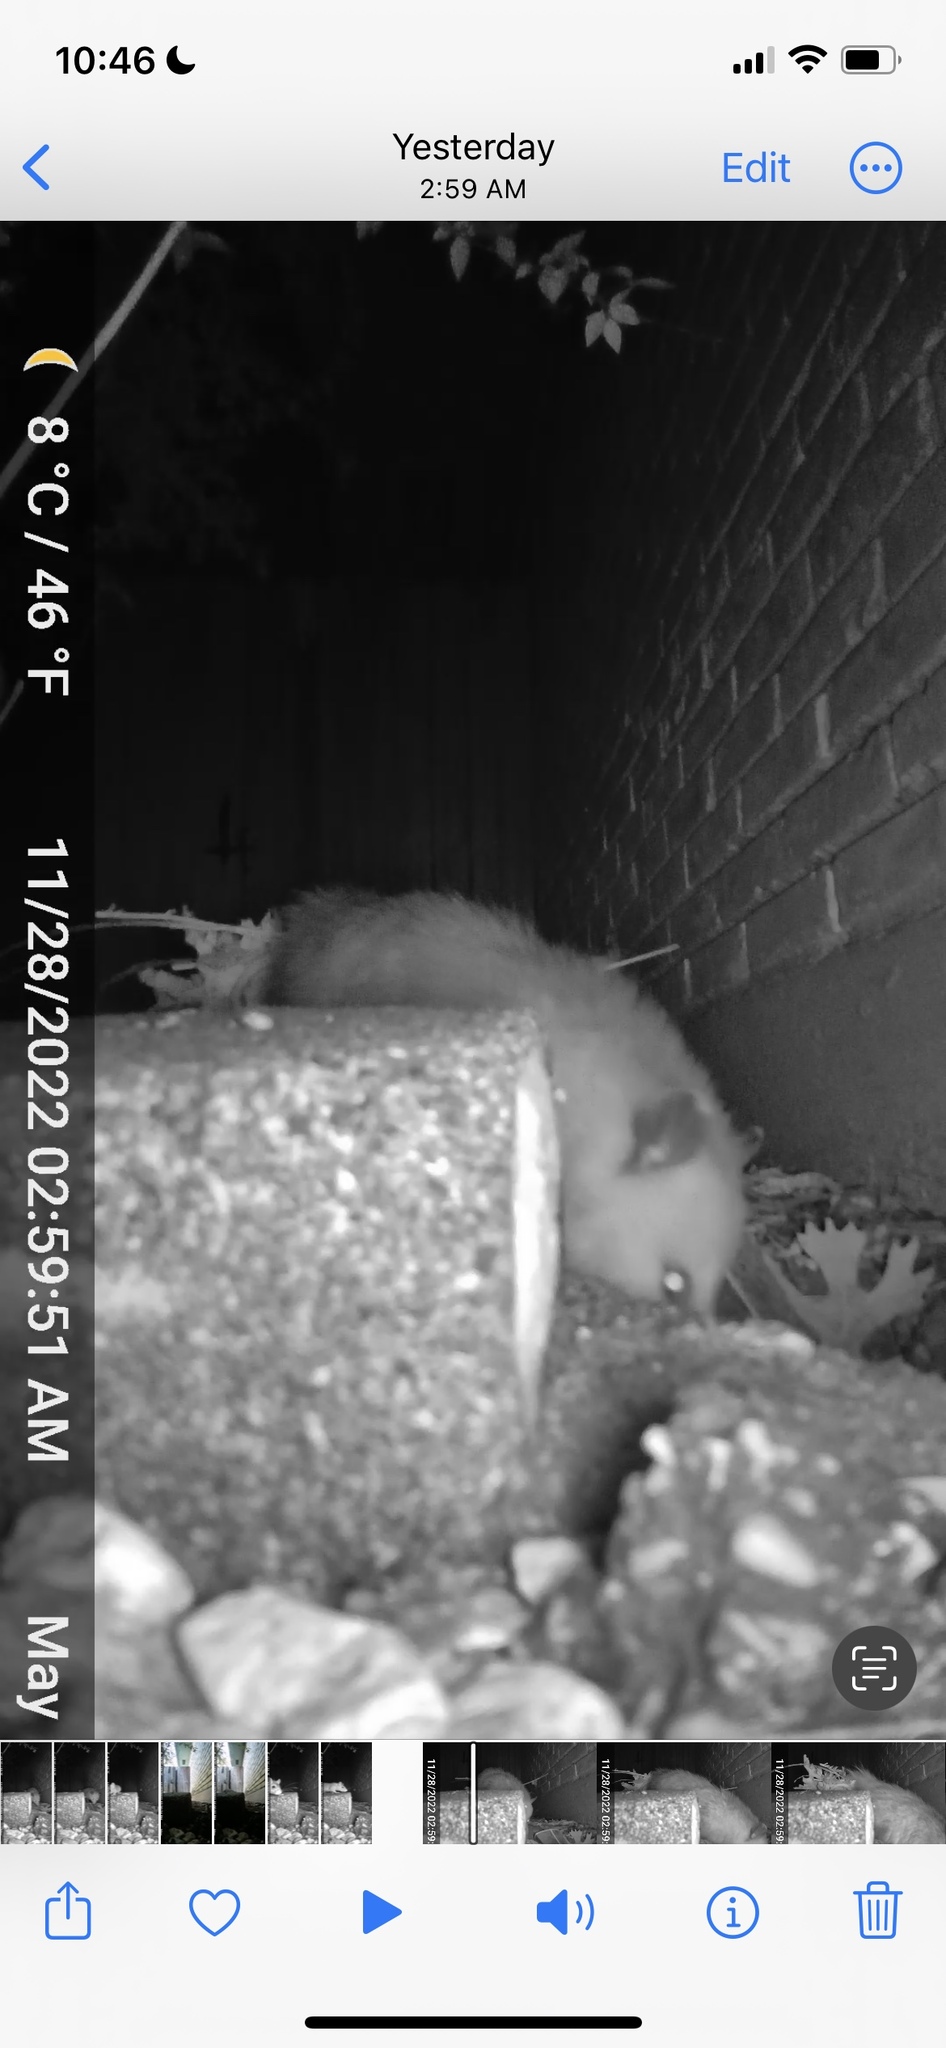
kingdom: Animalia
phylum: Chordata
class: Mammalia
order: Didelphimorphia
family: Didelphidae
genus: Didelphis
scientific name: Didelphis virginiana
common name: Virginia opossum
